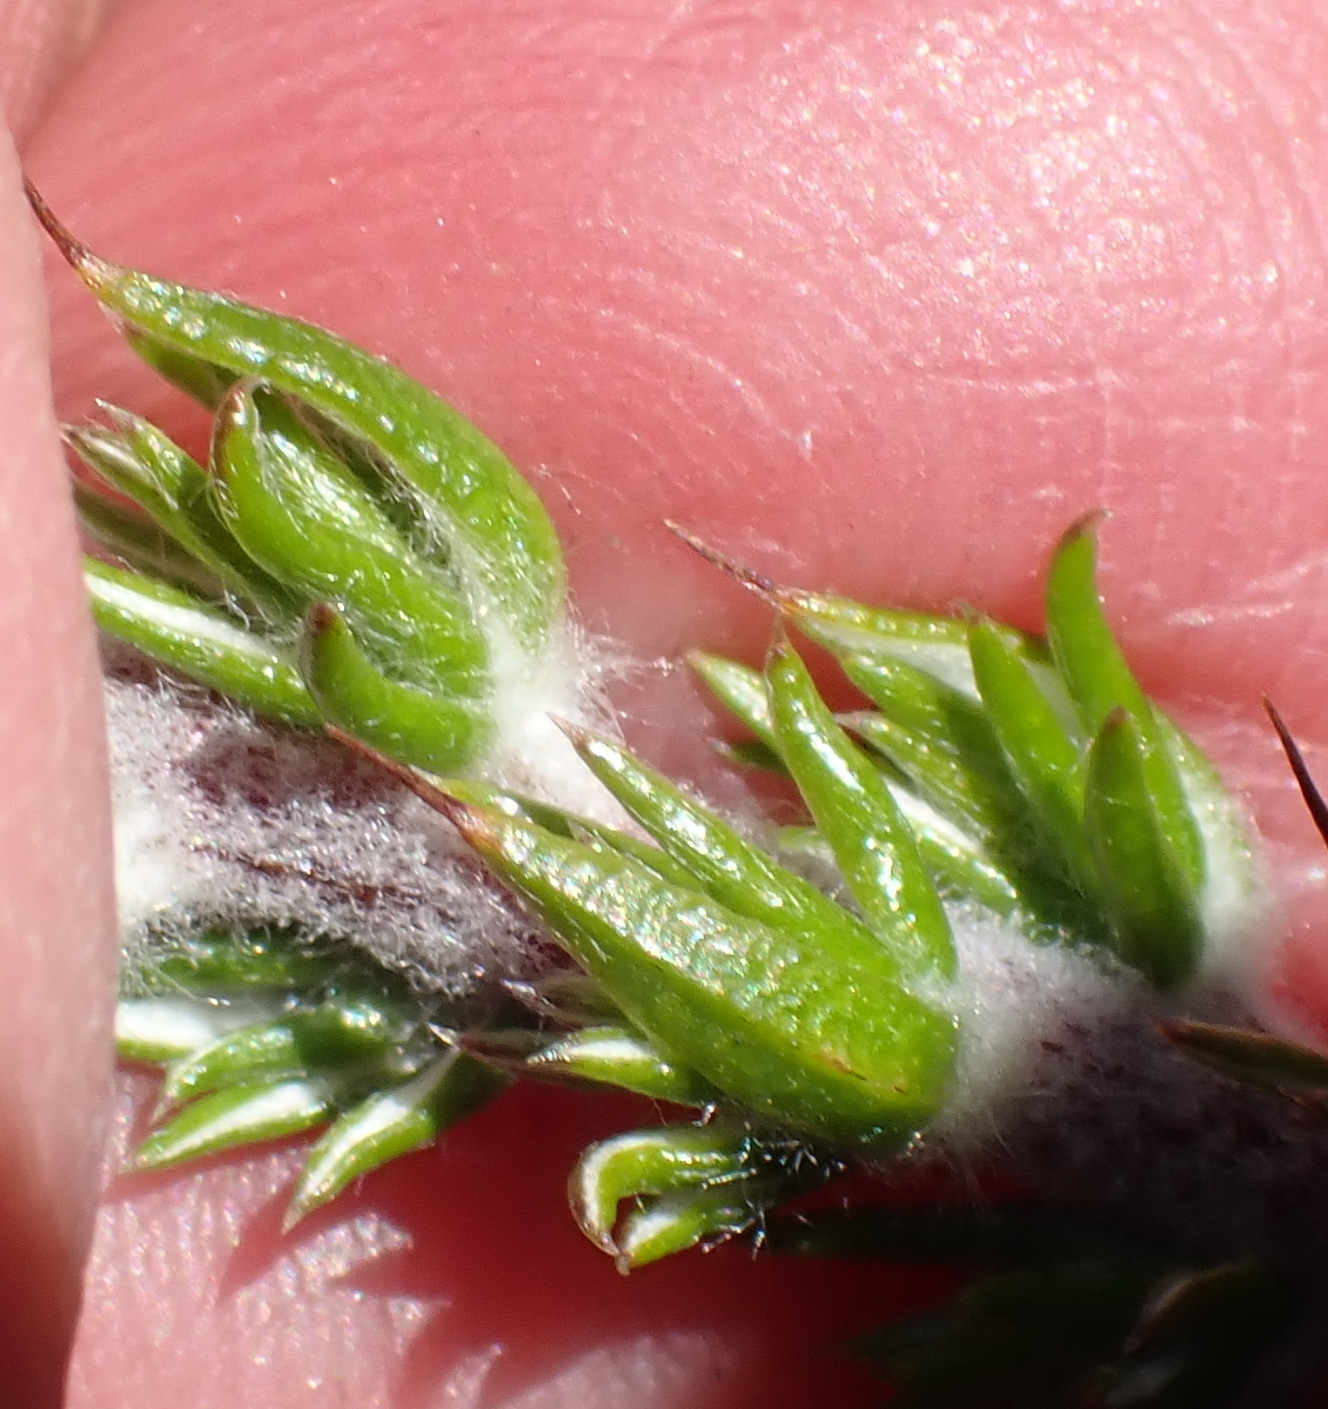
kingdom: Plantae
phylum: Tracheophyta
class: Magnoliopsida
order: Asterales
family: Asteraceae
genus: Metalasia
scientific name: Metalasia pungens
